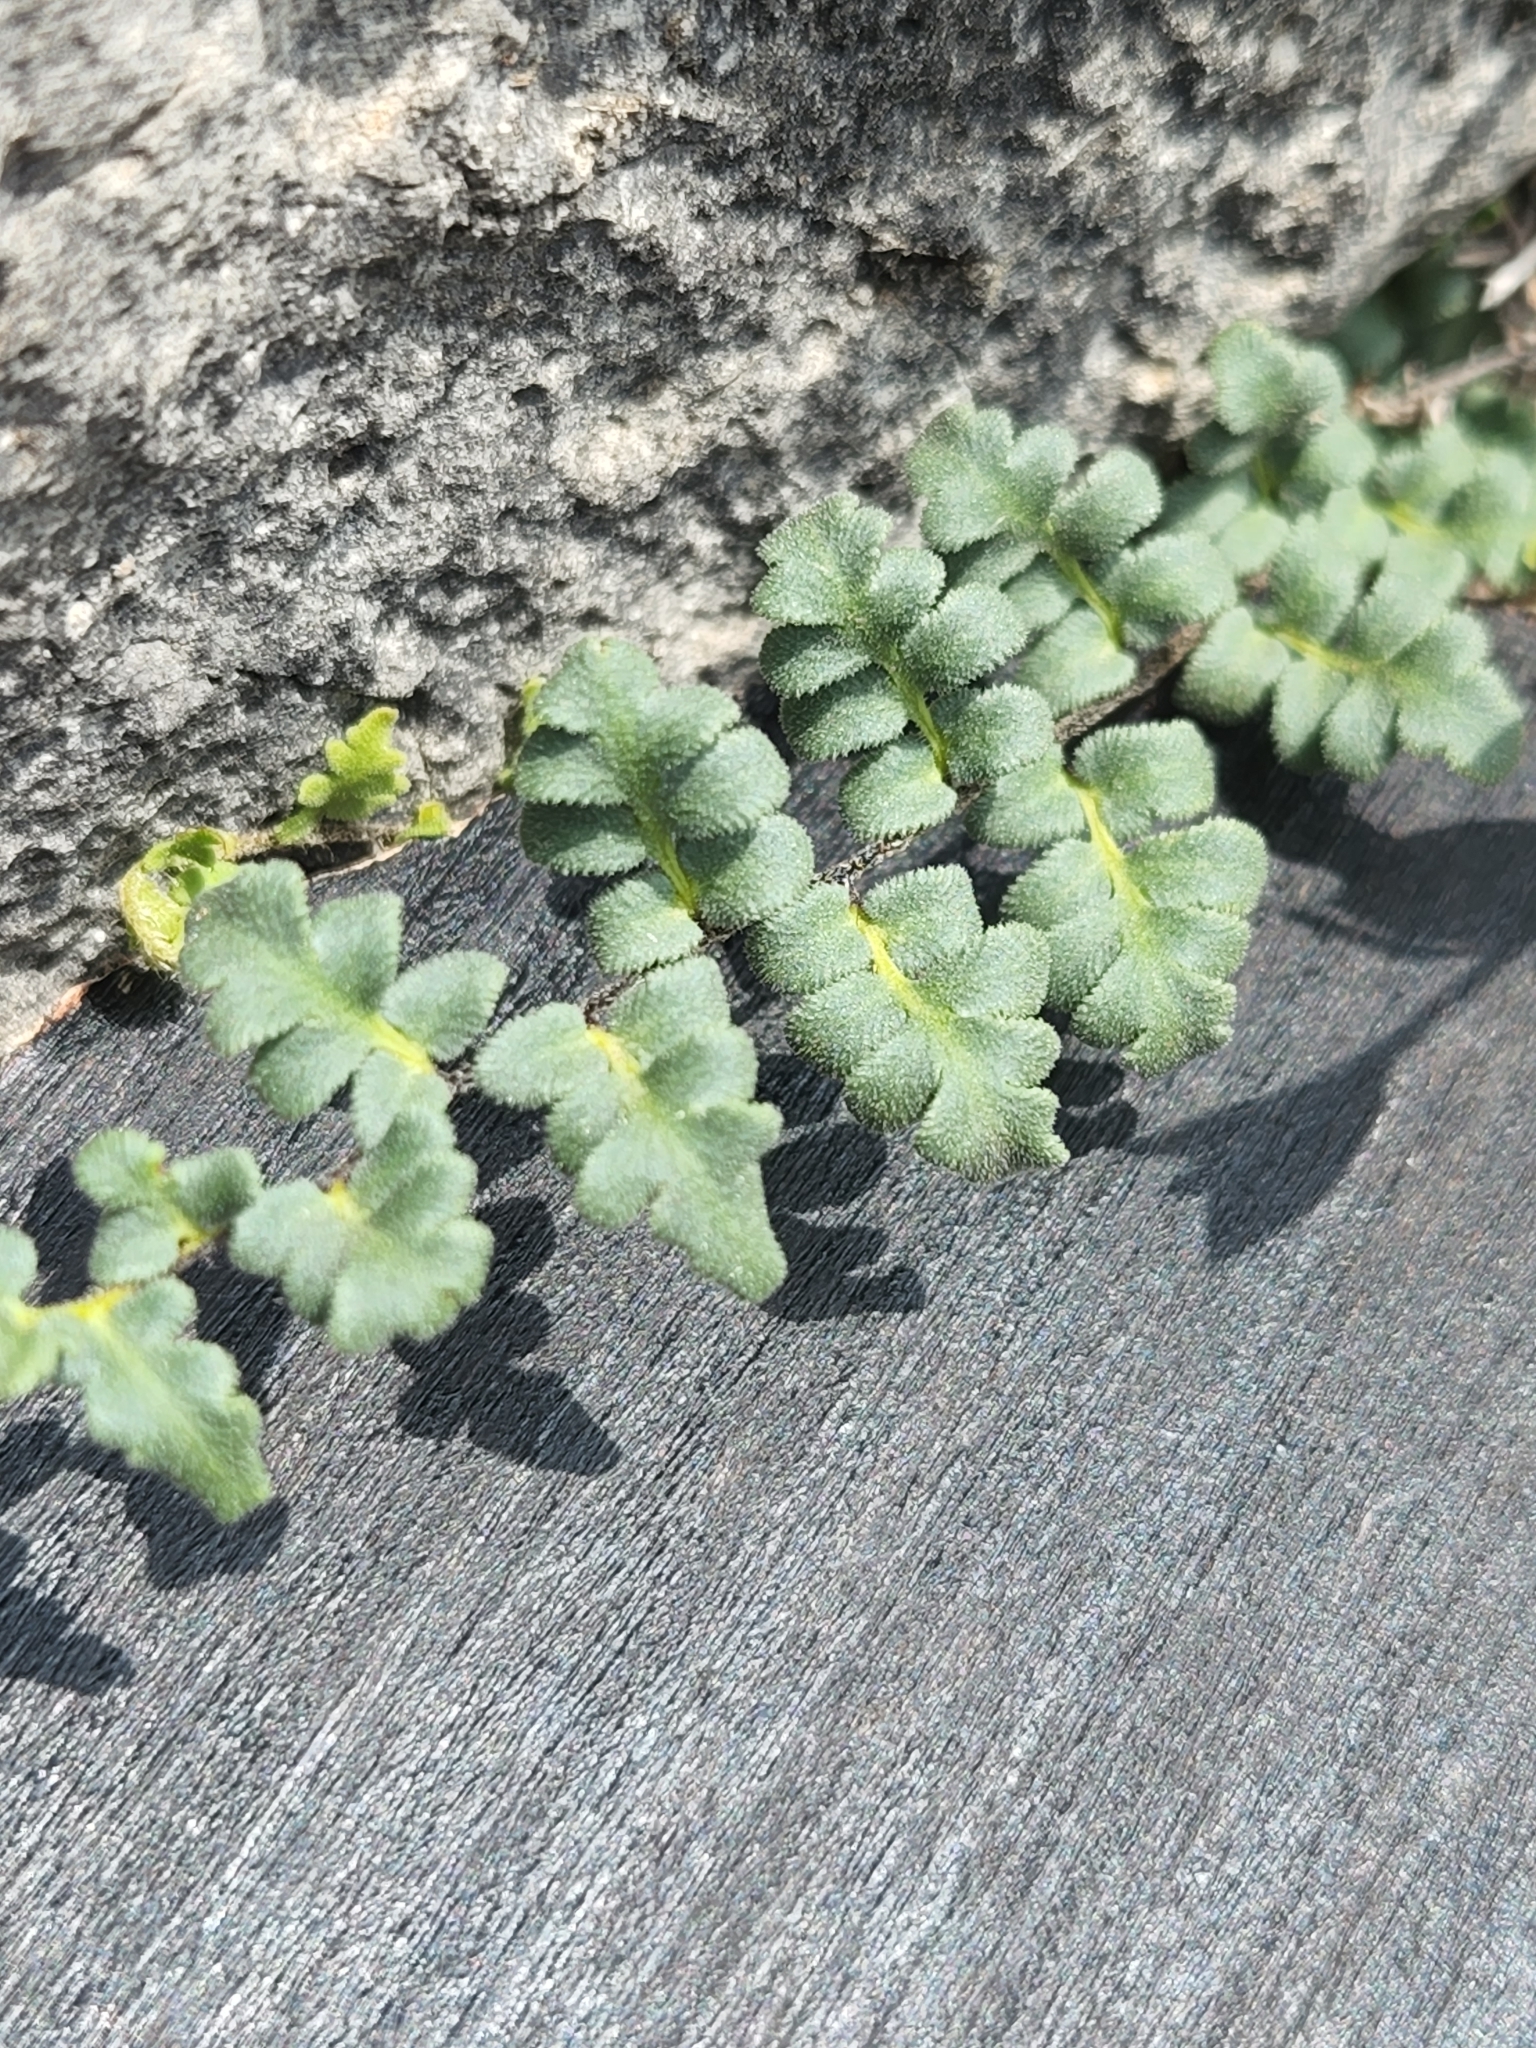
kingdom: Plantae
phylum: Tracheophyta
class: Polypodiopsida
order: Polypodiales
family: Pteridaceae
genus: Myriopteris
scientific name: Myriopteris scabra
